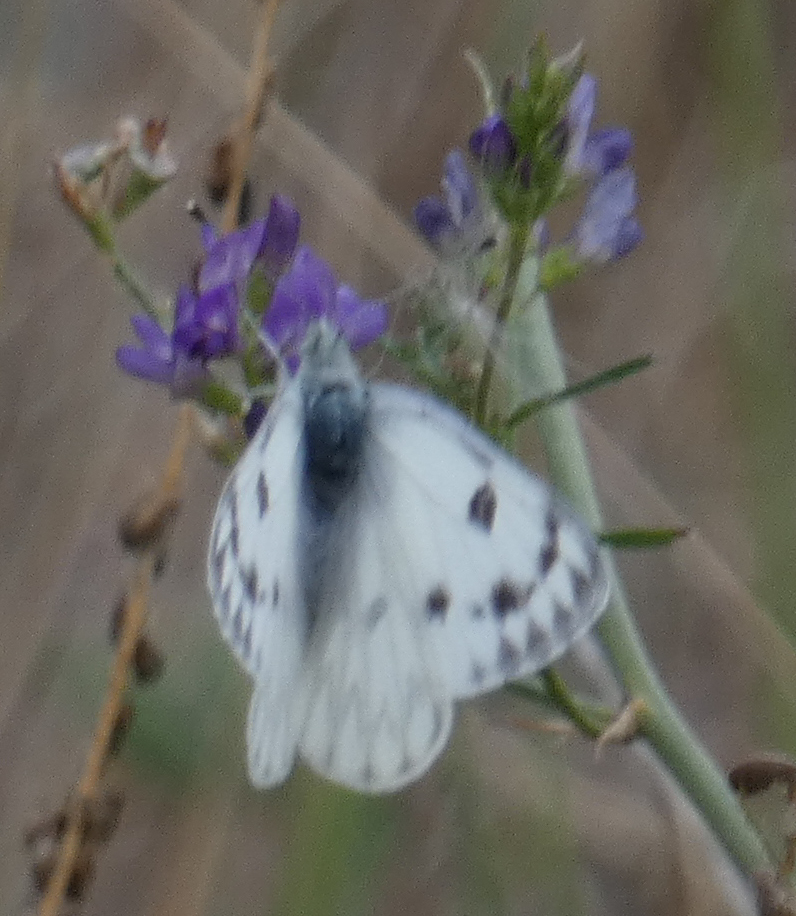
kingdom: Animalia
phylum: Arthropoda
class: Insecta
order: Lepidoptera
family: Pieridae
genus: Pontia
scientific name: Pontia occidentalis
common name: Western white
